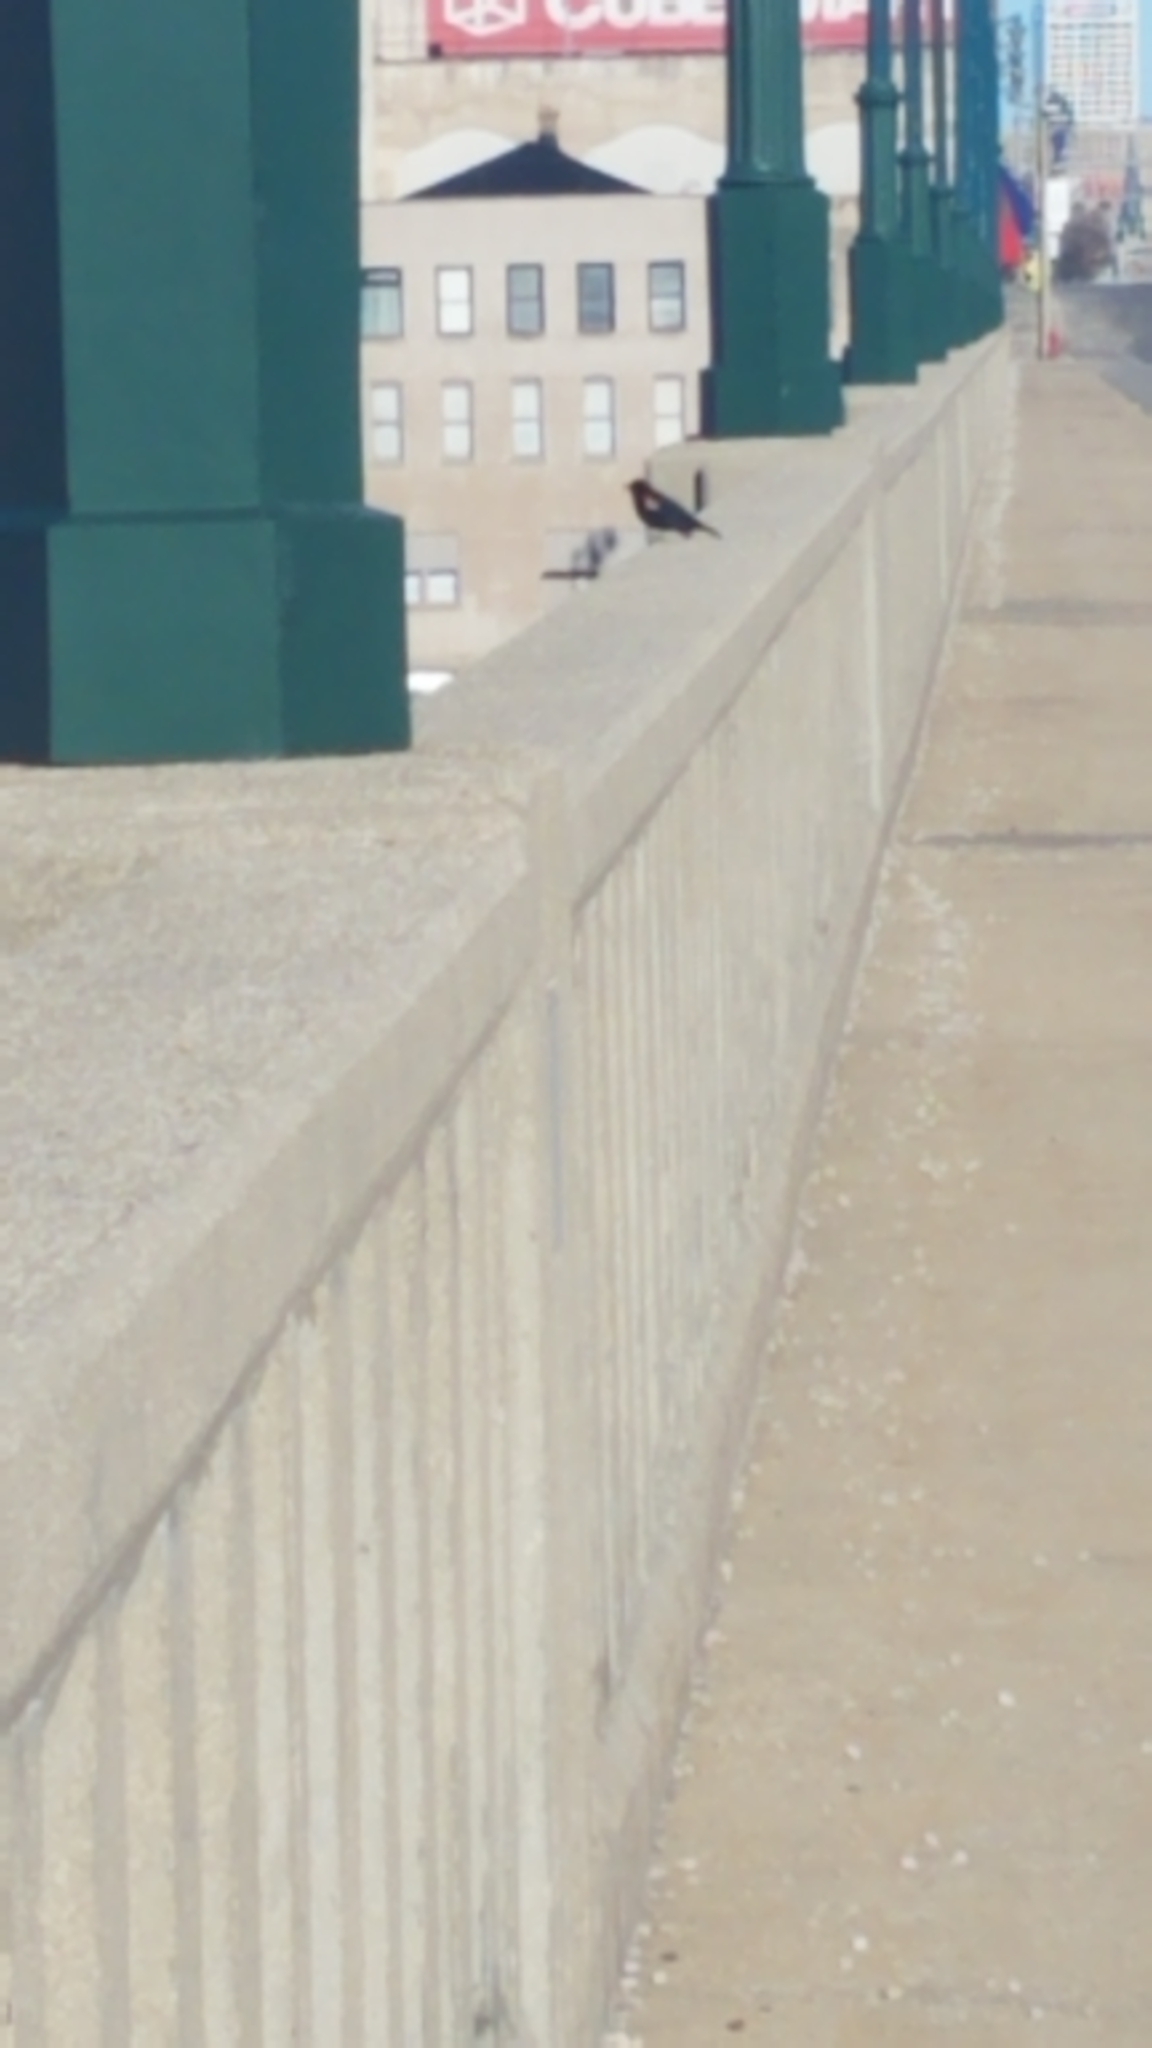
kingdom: Animalia
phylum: Chordata
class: Aves
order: Passeriformes
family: Icteridae
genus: Agelaius
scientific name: Agelaius phoeniceus
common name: Red-winged blackbird
